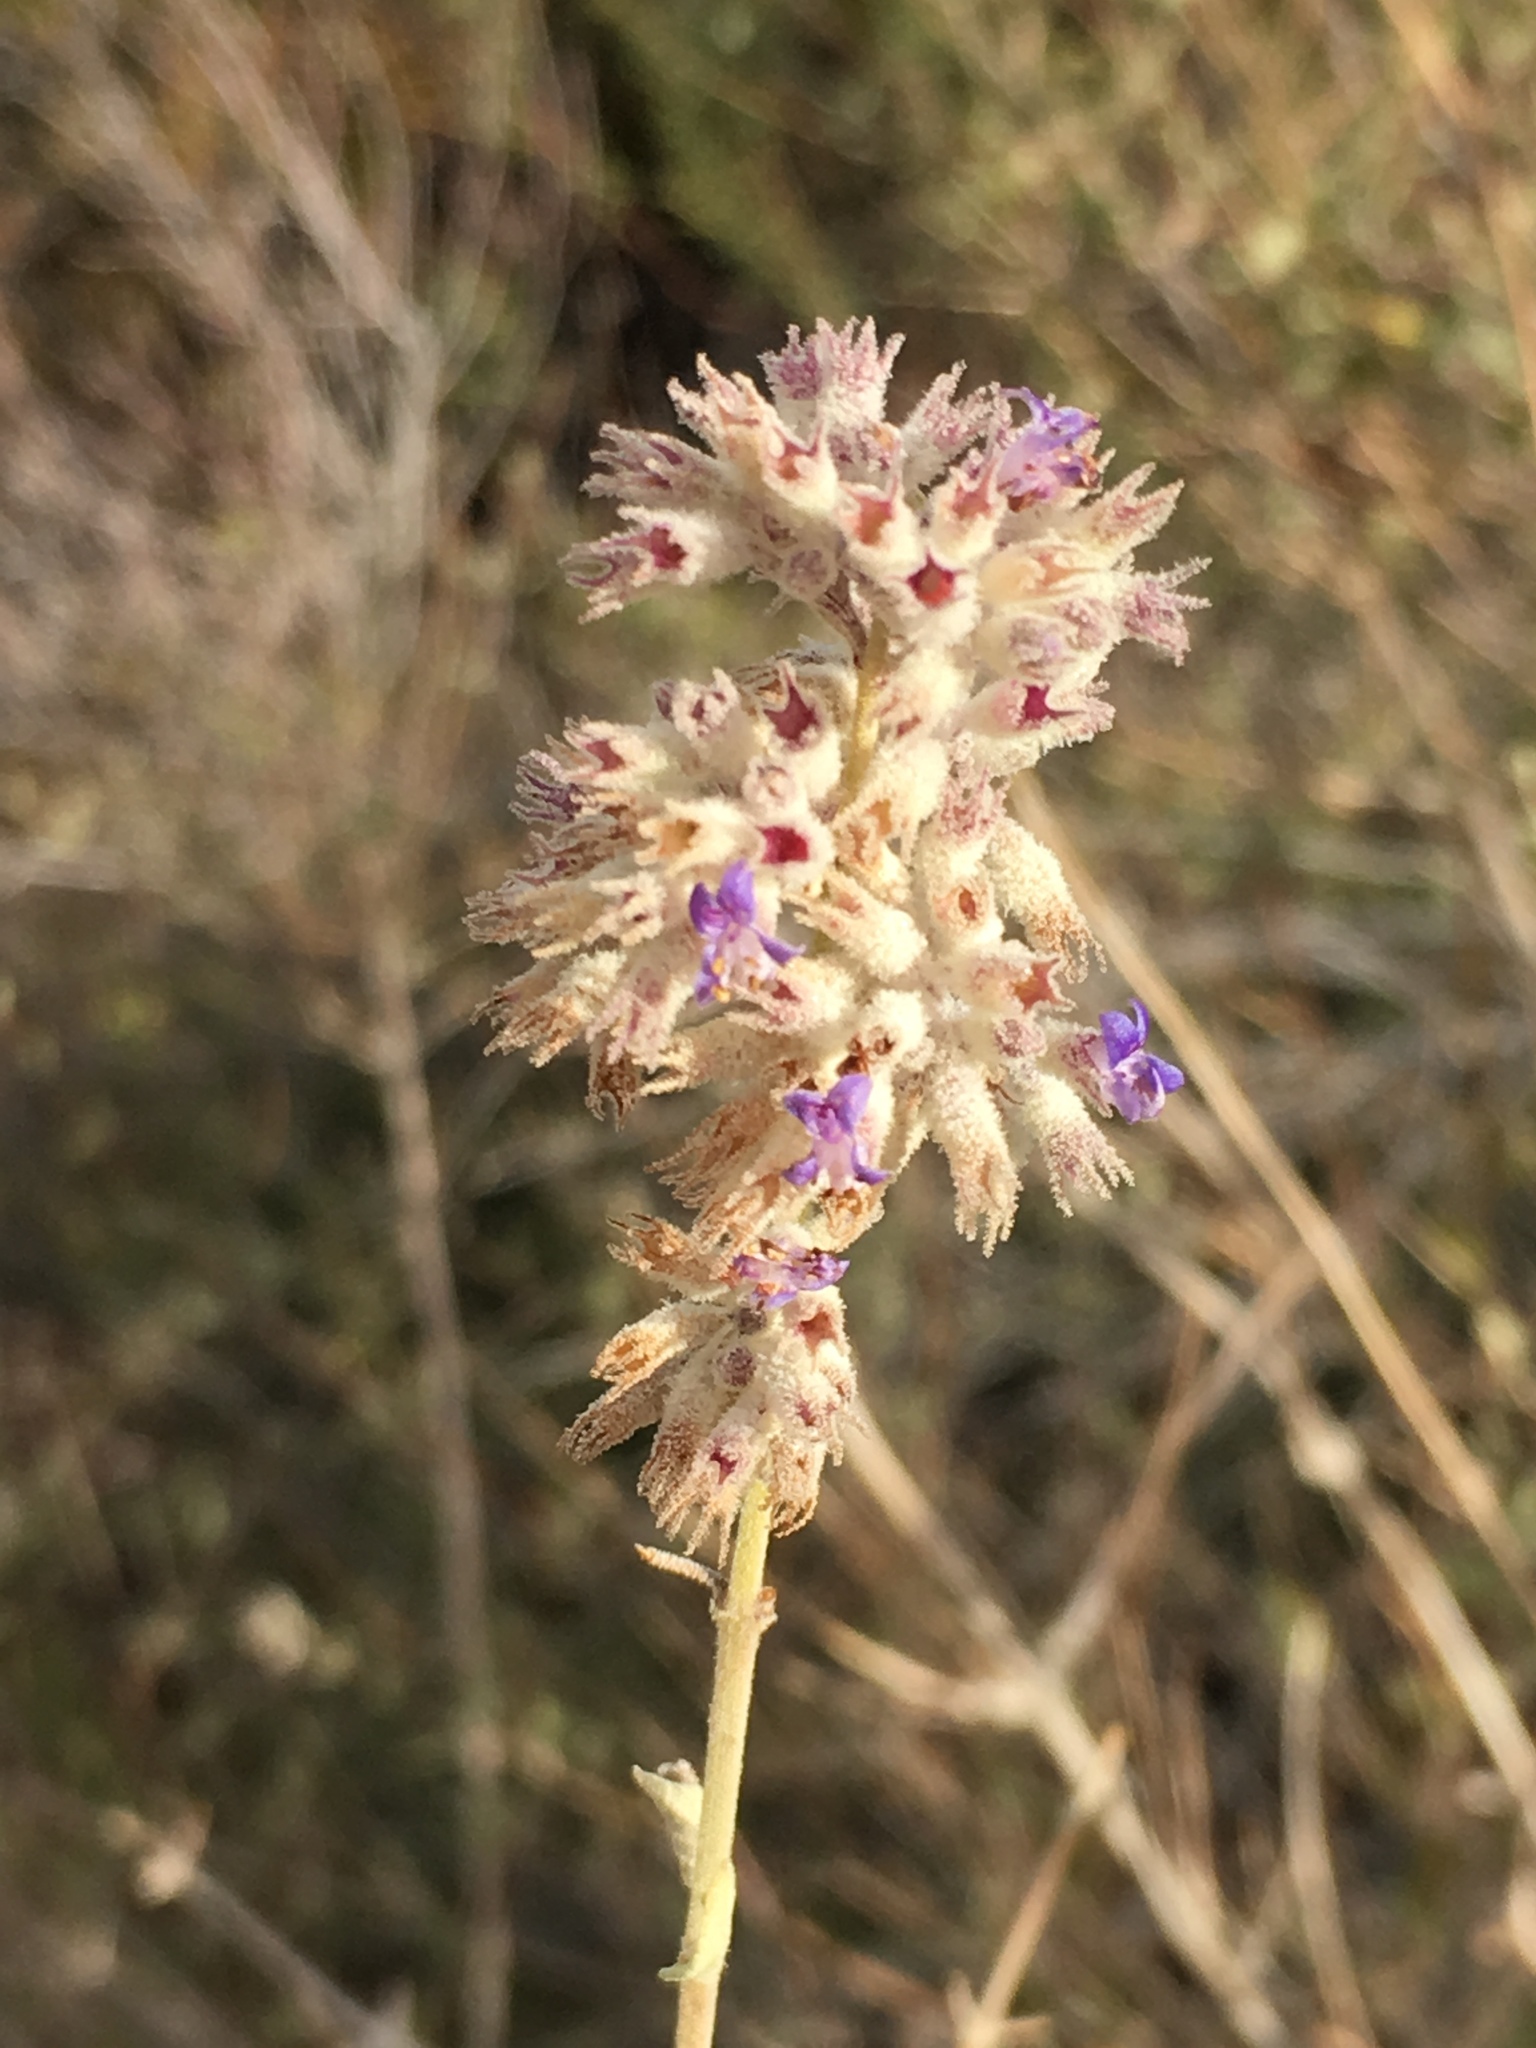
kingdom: Plantae
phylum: Tracheophyta
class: Magnoliopsida
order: Lamiales
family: Lamiaceae
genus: Condea
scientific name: Condea emoryi
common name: Chia
